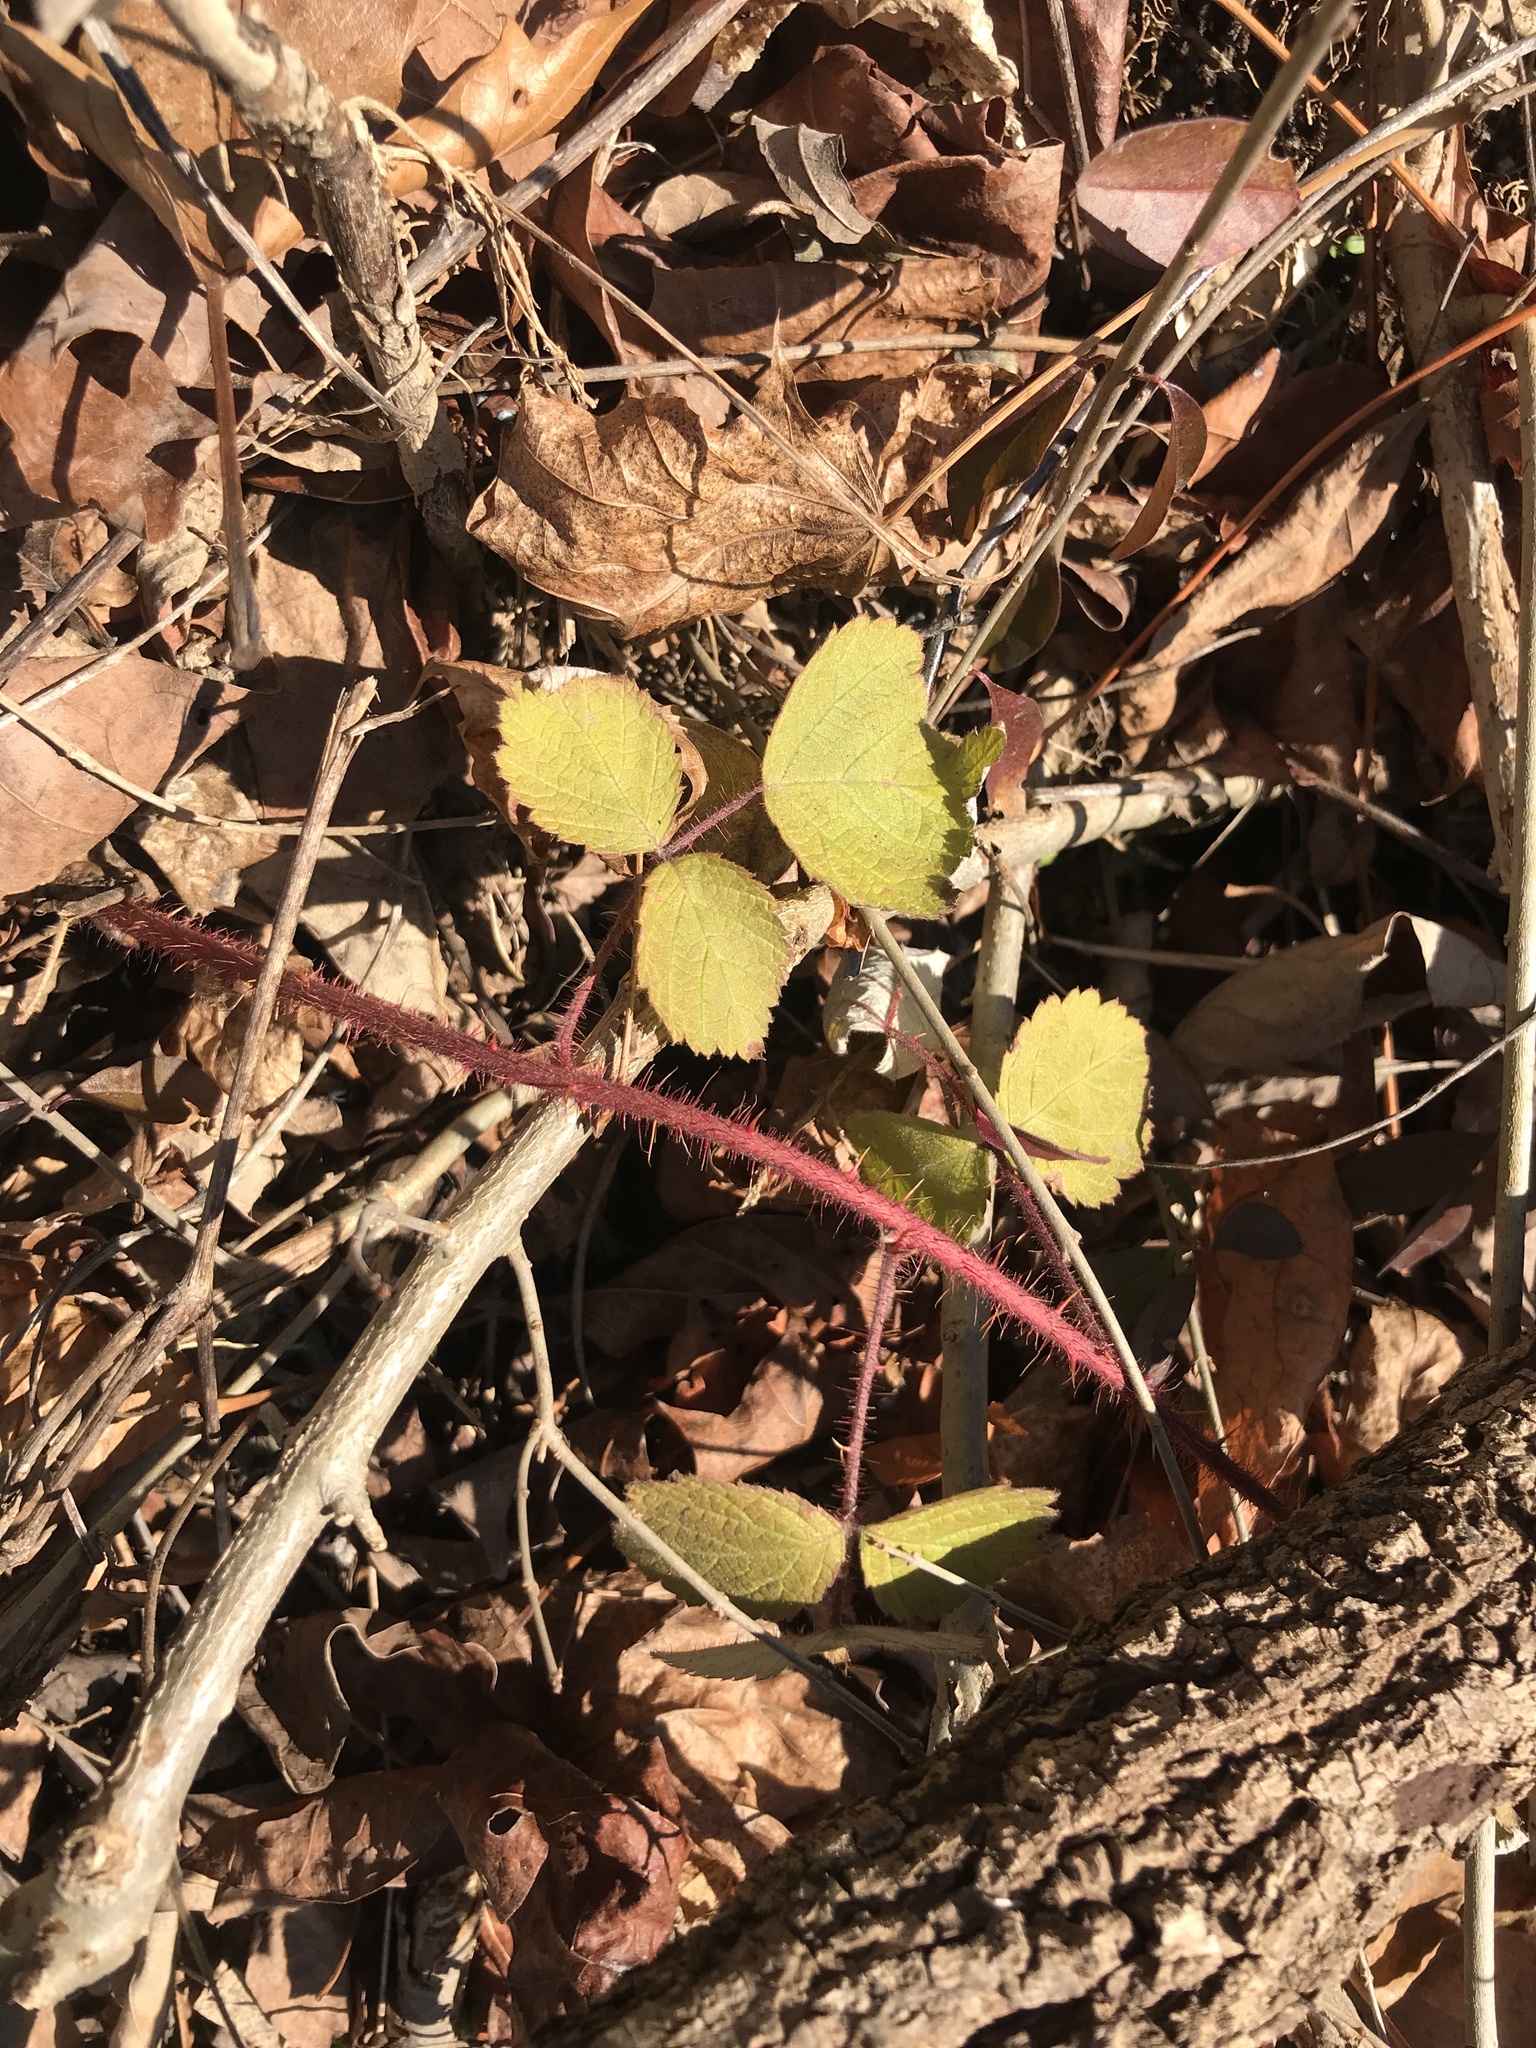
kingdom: Plantae
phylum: Tracheophyta
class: Magnoliopsida
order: Rosales
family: Rosaceae
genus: Rubus
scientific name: Rubus phoenicolasius
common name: Japanese wineberry
